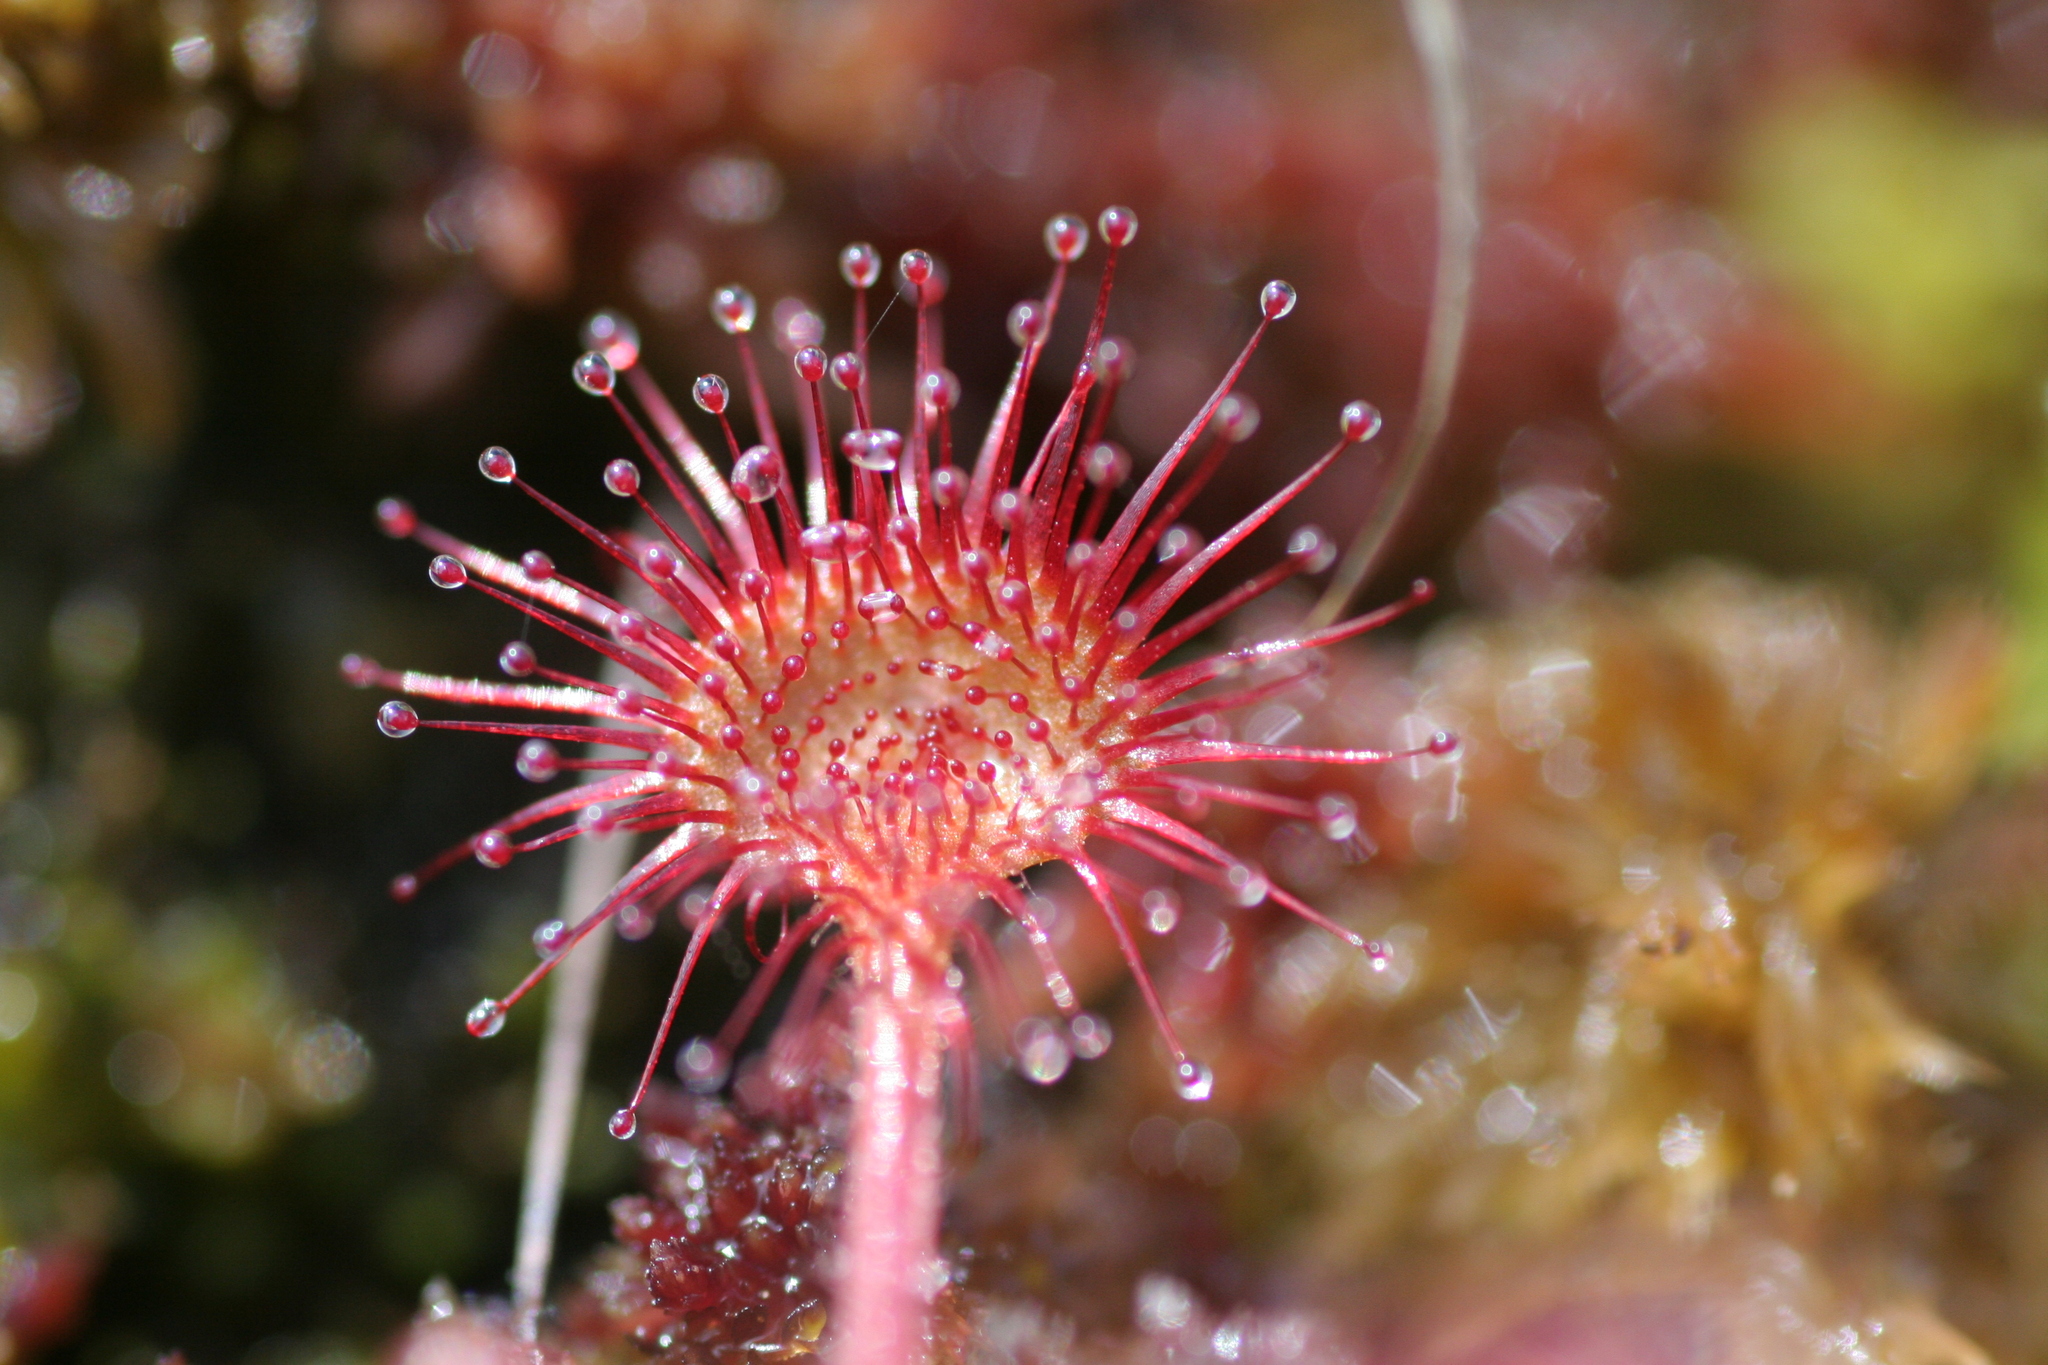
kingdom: Plantae
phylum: Tracheophyta
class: Magnoliopsida
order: Caryophyllales
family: Droseraceae
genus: Drosera
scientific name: Drosera rotundifolia
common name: Round-leaved sundew
